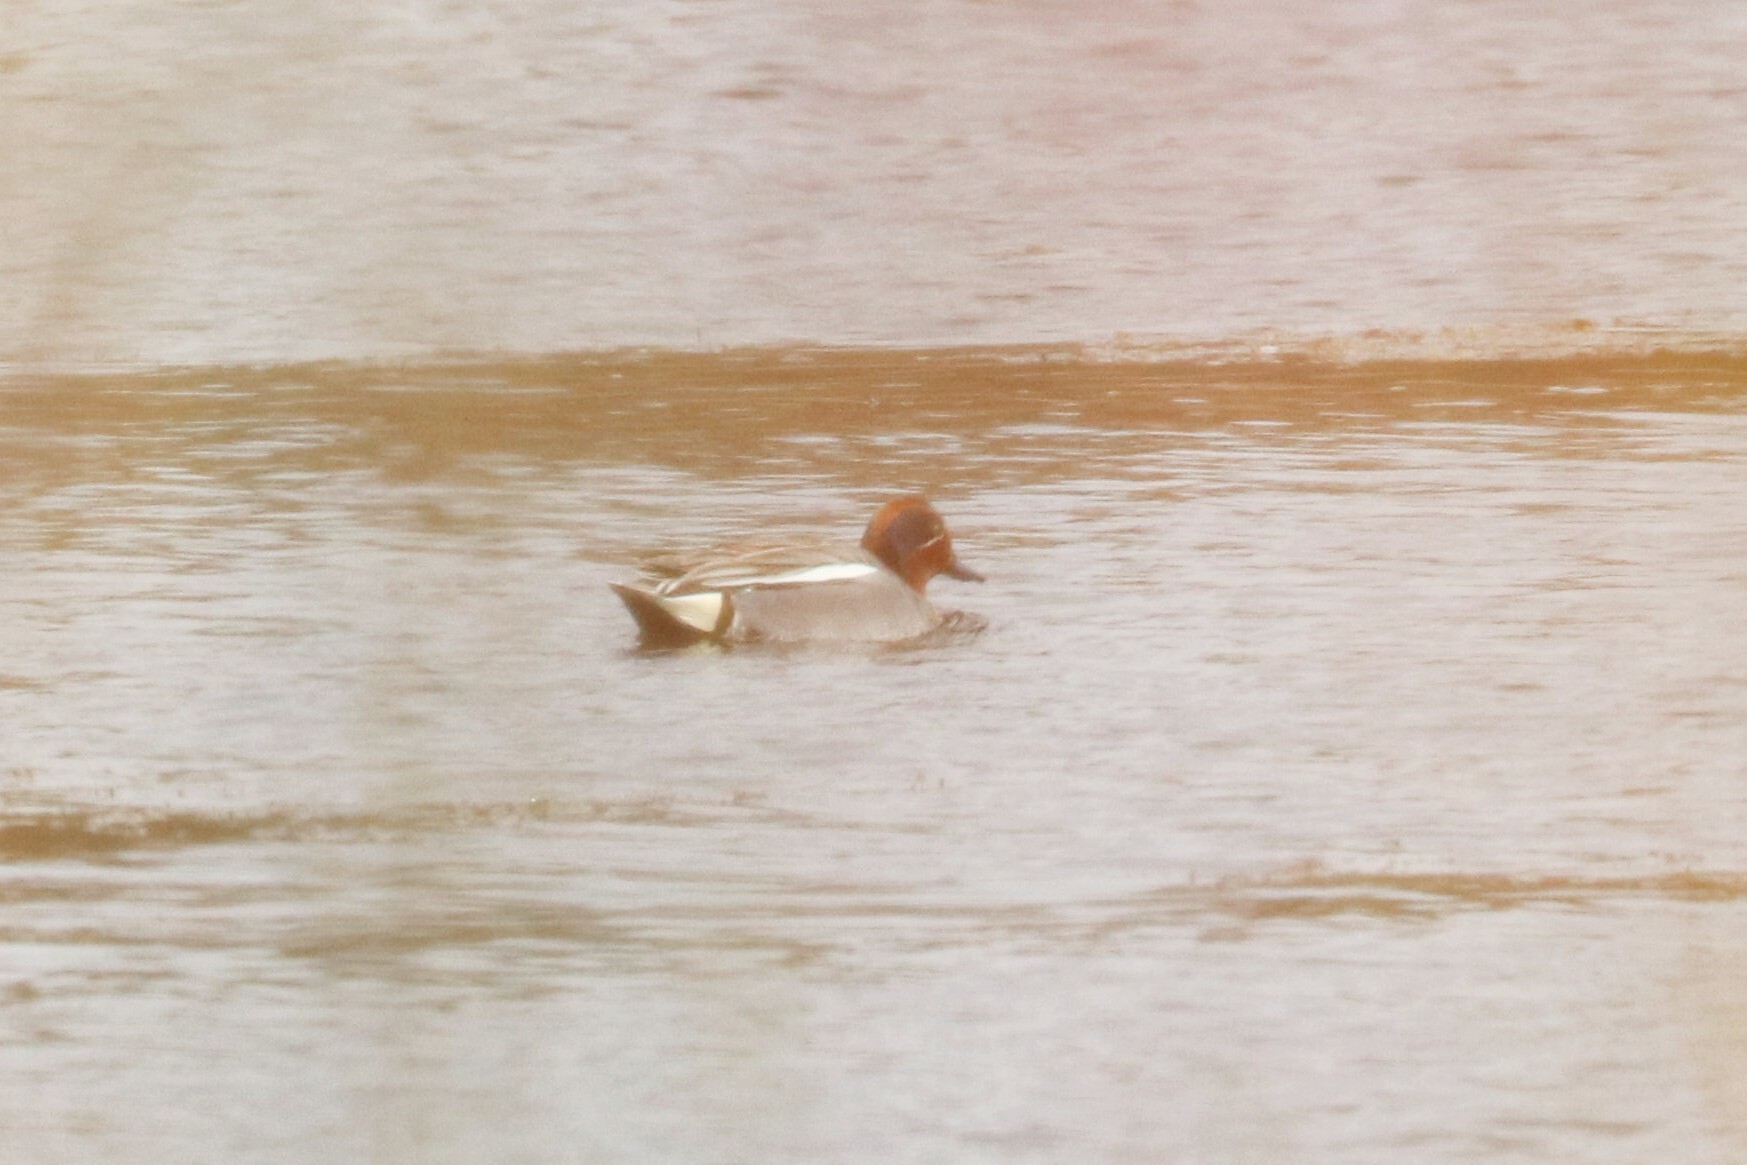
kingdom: Animalia
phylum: Chordata
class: Aves
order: Anseriformes
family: Anatidae
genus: Anas
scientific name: Anas crecca
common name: Eurasian teal
